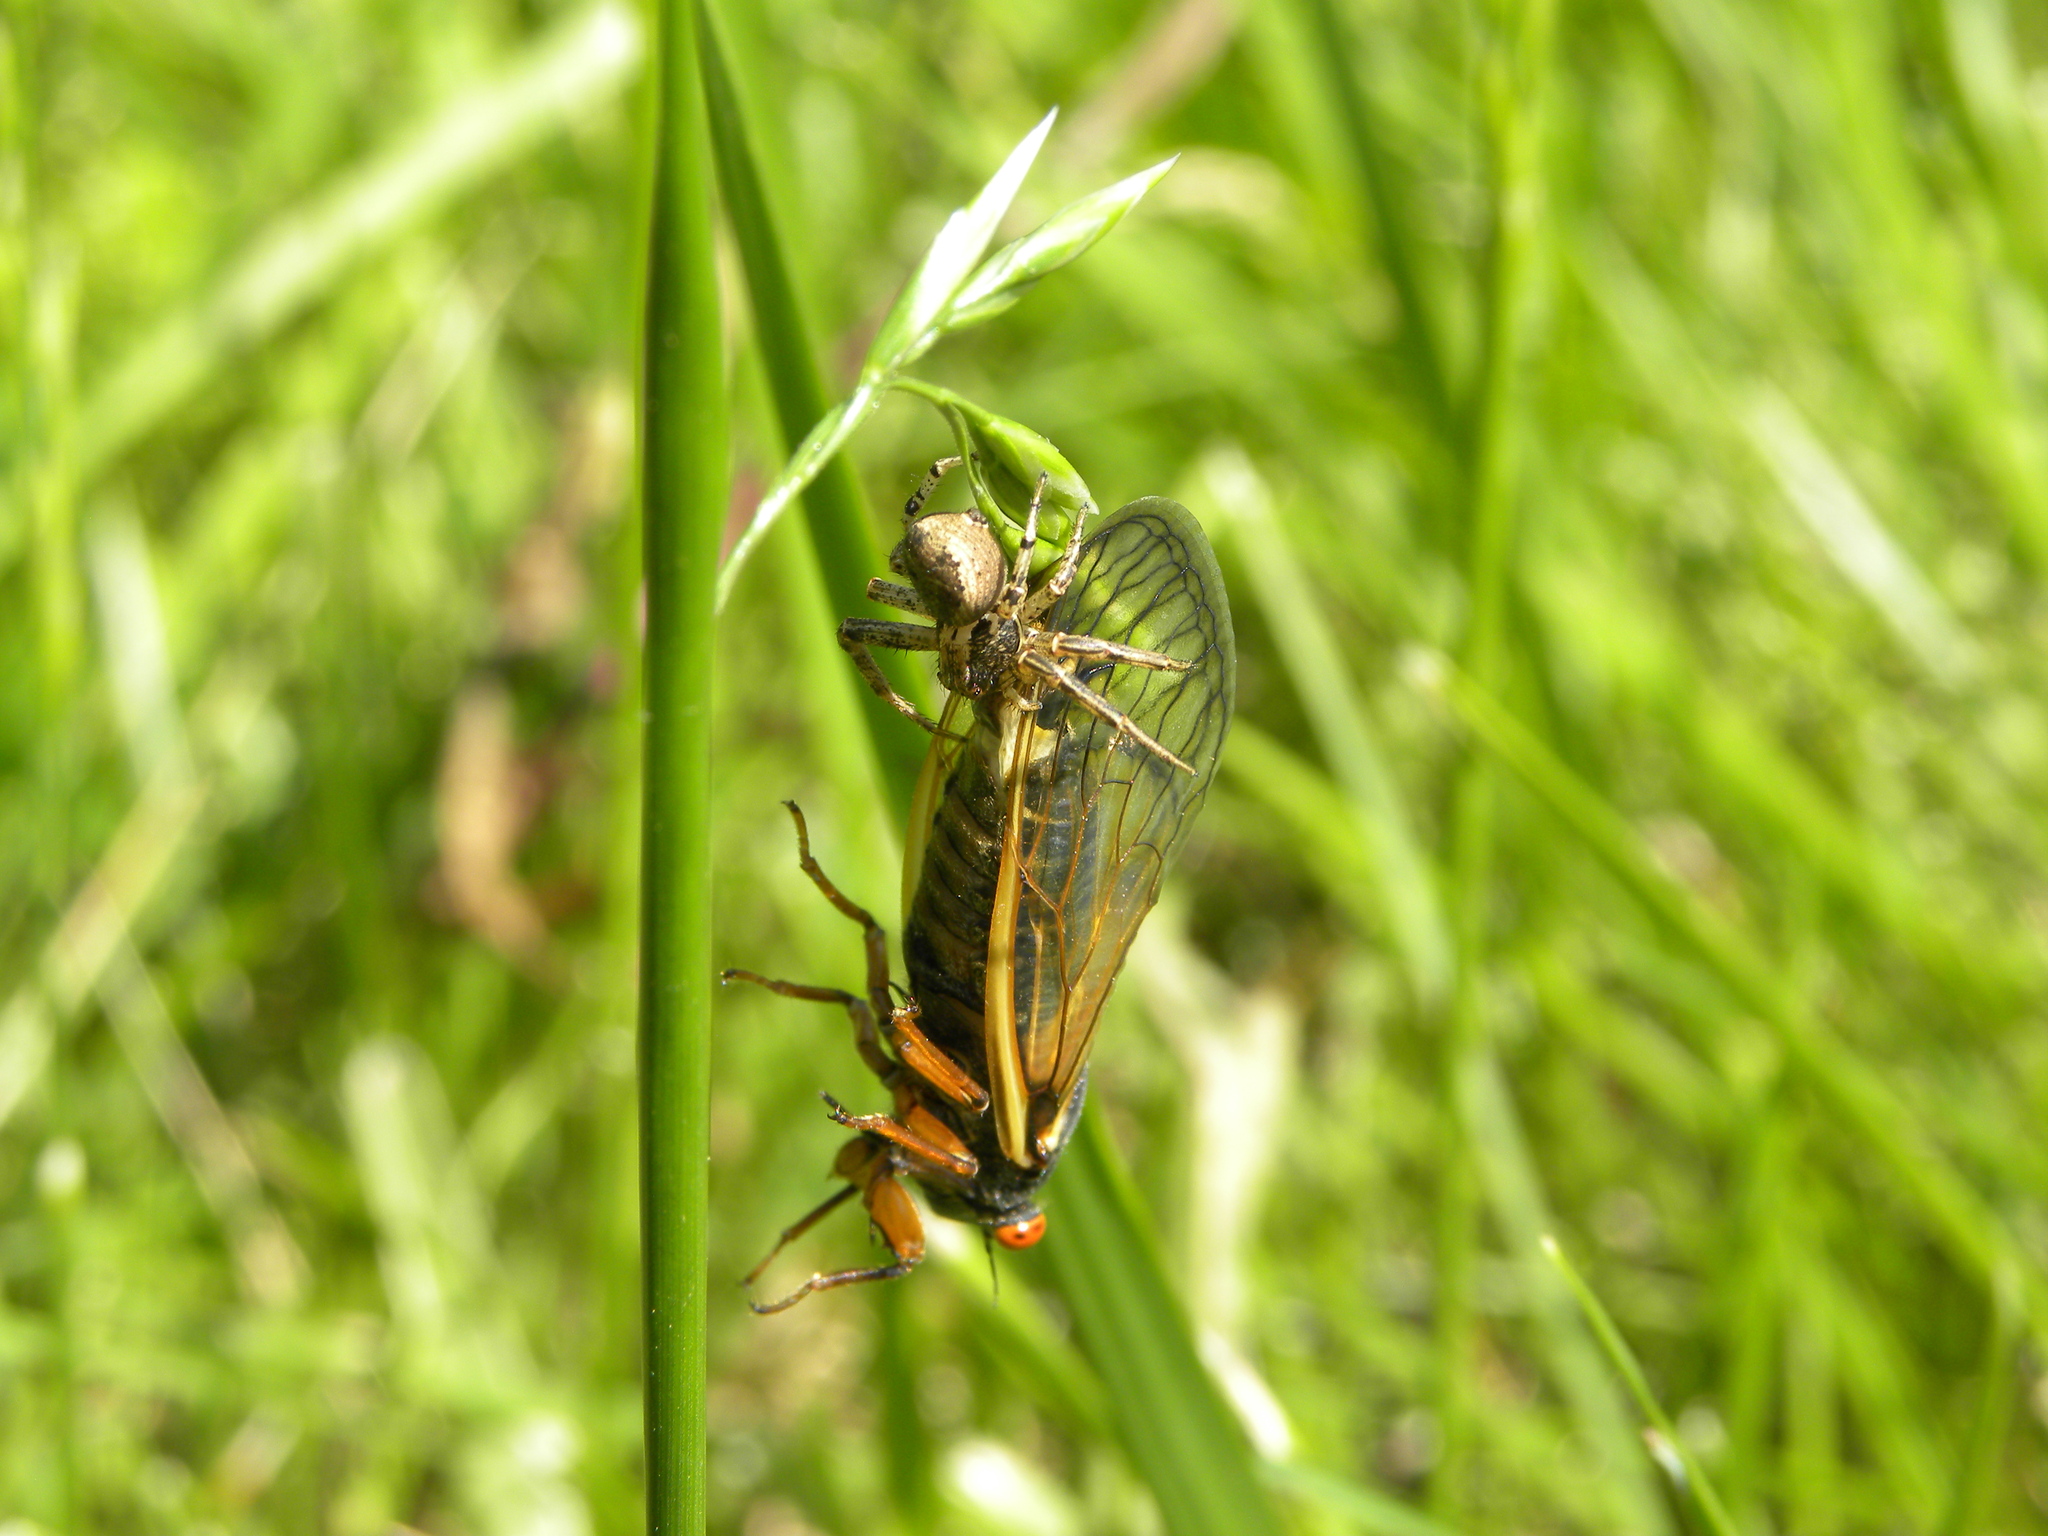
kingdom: Animalia
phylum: Arthropoda
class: Insecta
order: Hemiptera
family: Cicadidae
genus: Magicicada
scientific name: Magicicada cassini
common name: Cassin's 17-year cicada
